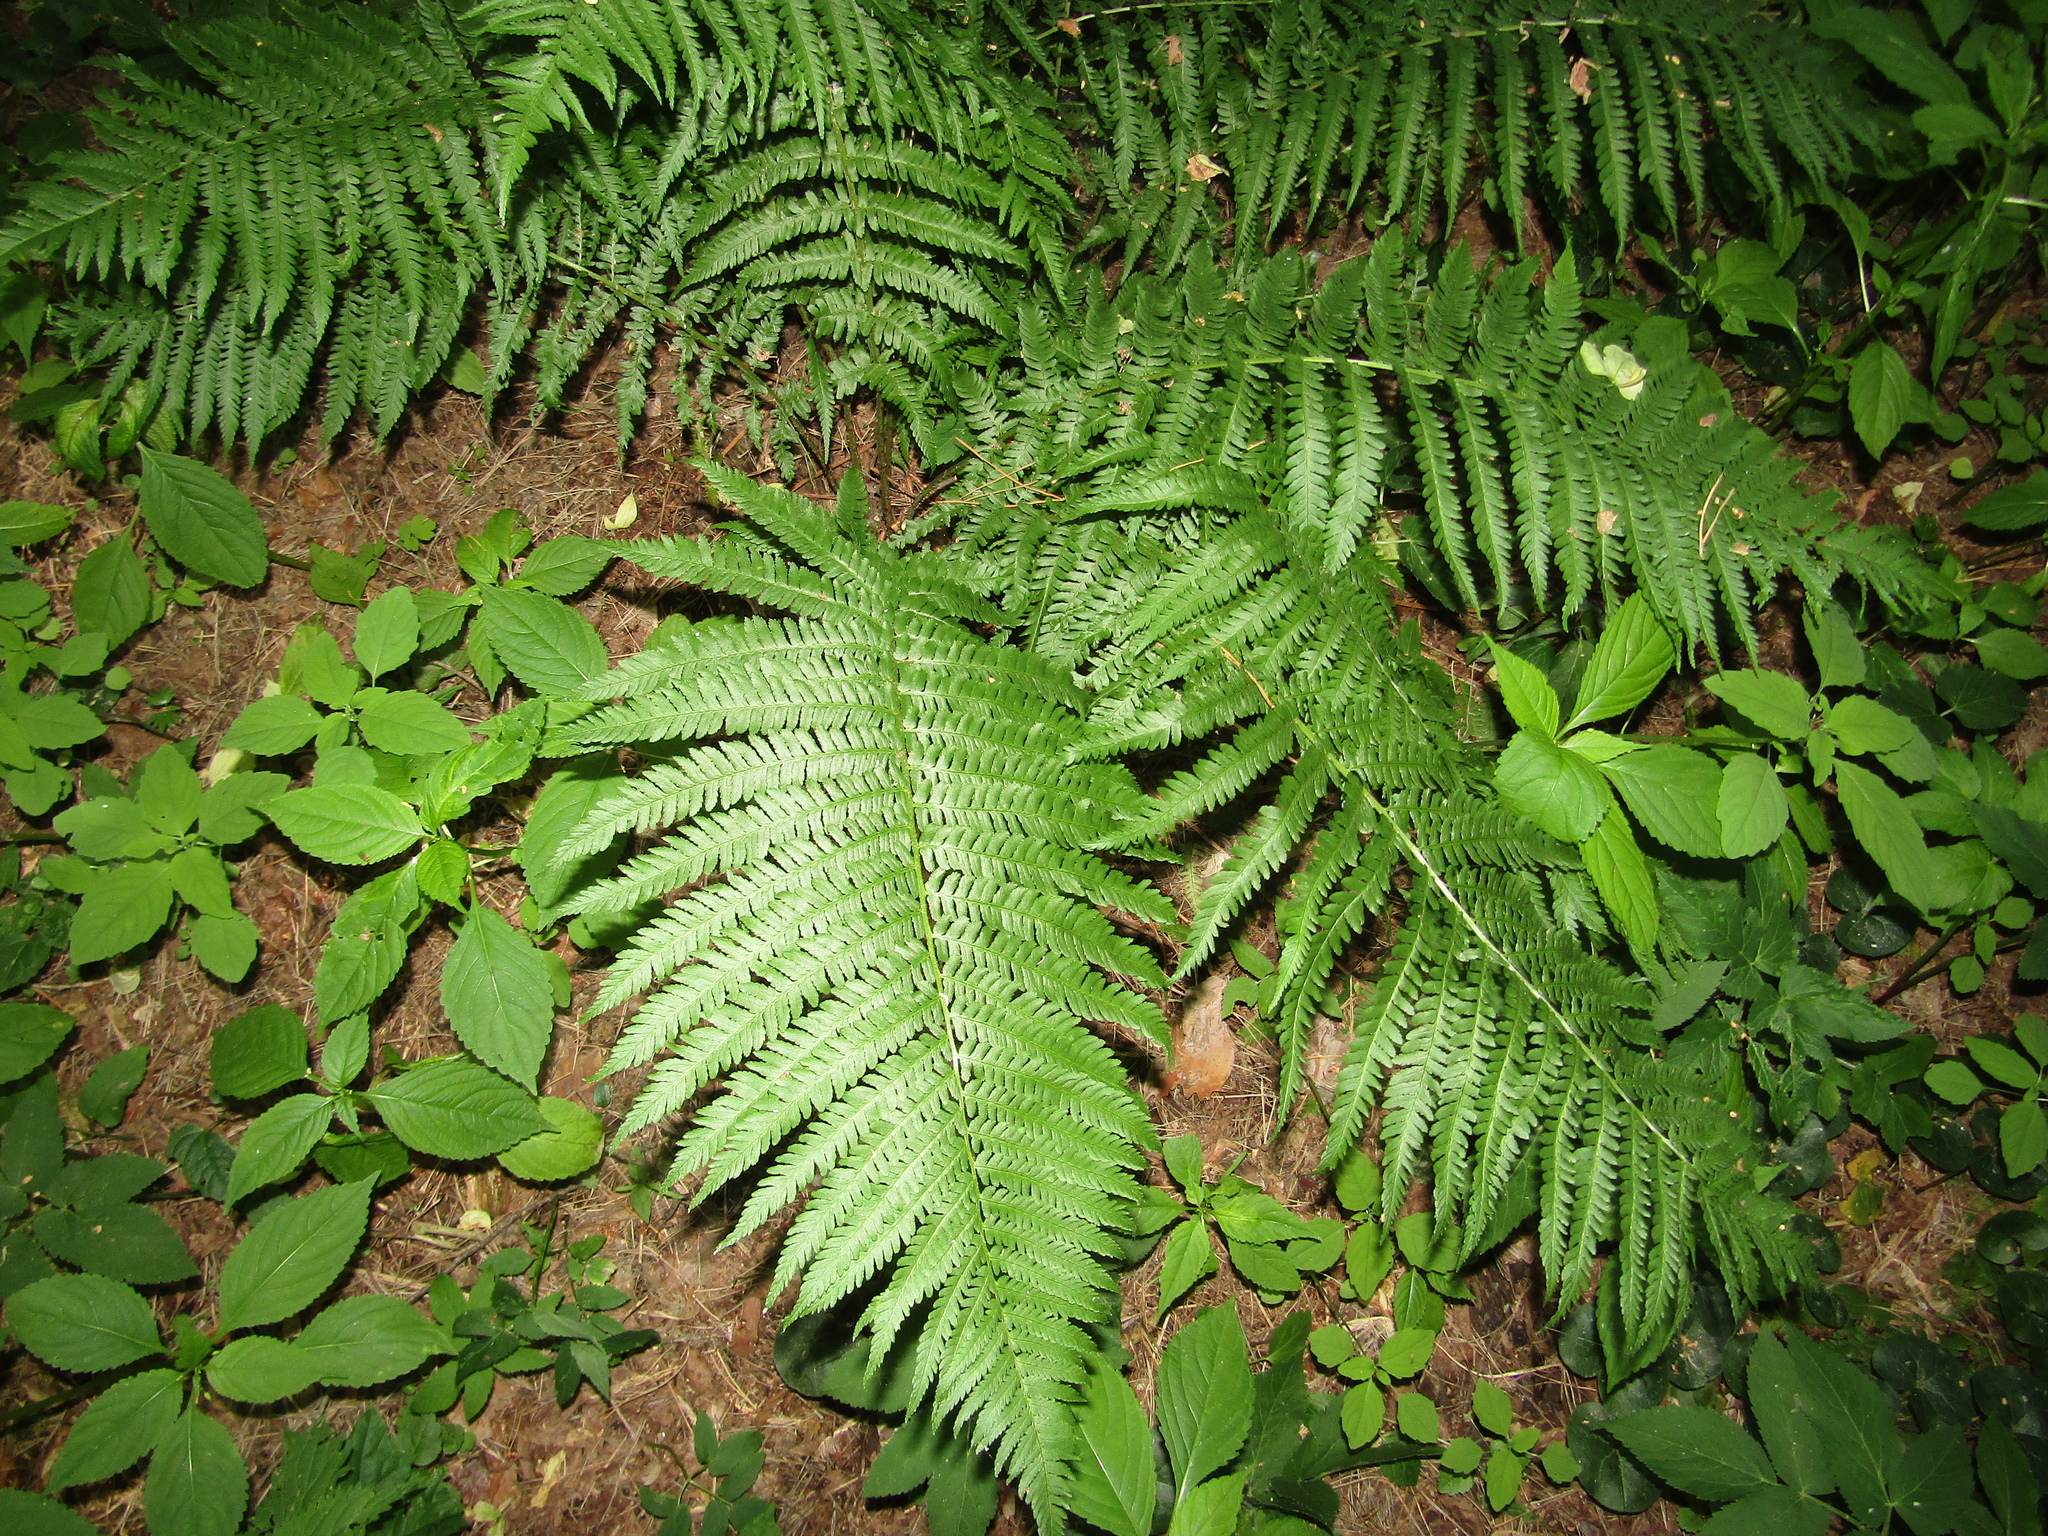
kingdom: Plantae
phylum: Tracheophyta
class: Polypodiopsida
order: Polypodiales
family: Dryopteridaceae
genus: Dryopteris
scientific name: Dryopteris filix-mas
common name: Male fern
